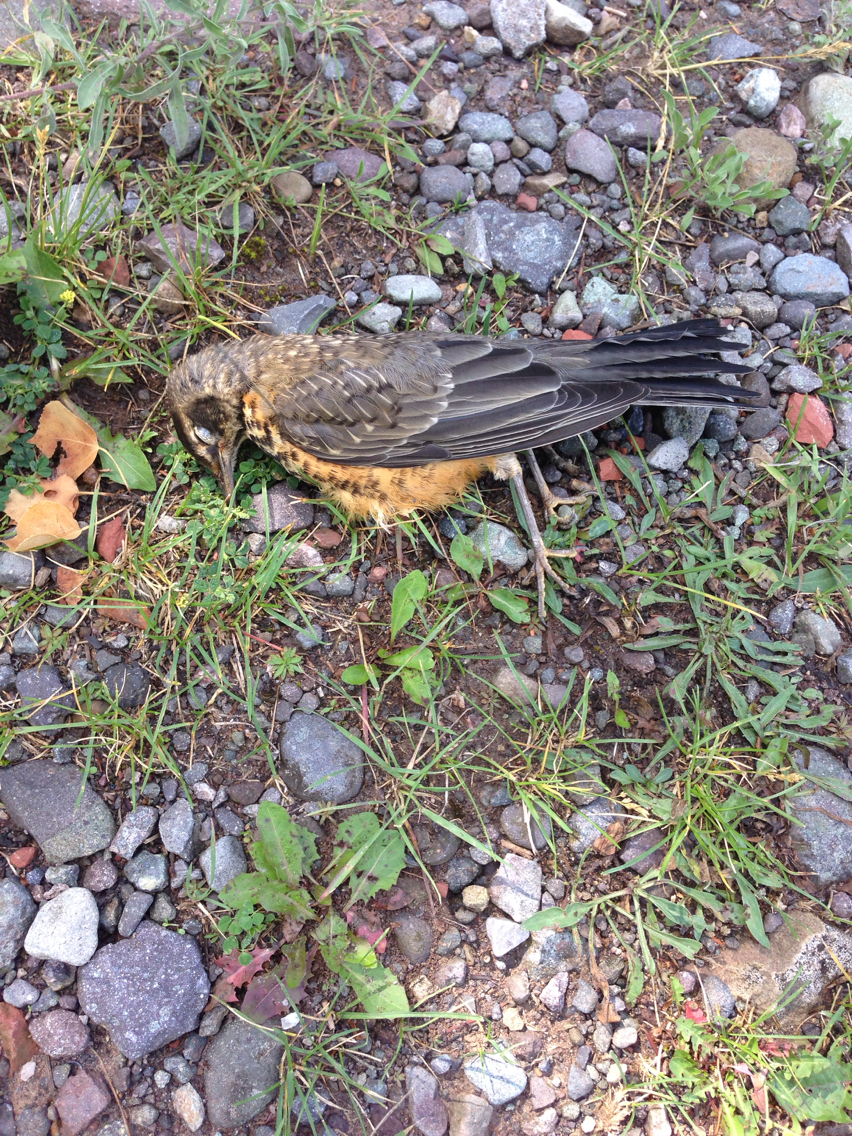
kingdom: Animalia
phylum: Chordata
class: Aves
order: Passeriformes
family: Turdidae
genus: Turdus
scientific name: Turdus migratorius
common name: American robin
